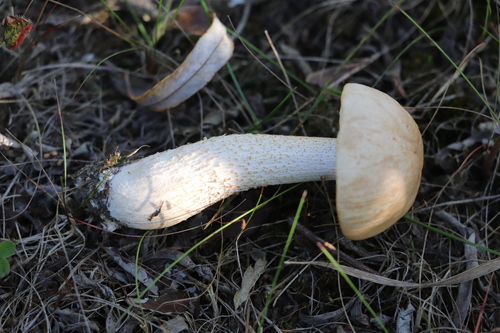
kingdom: Fungi
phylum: Basidiomycota
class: Agaricomycetes
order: Boletales
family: Boletaceae
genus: Leccinum
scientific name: Leccinum scabrum
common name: Blushing bolete
